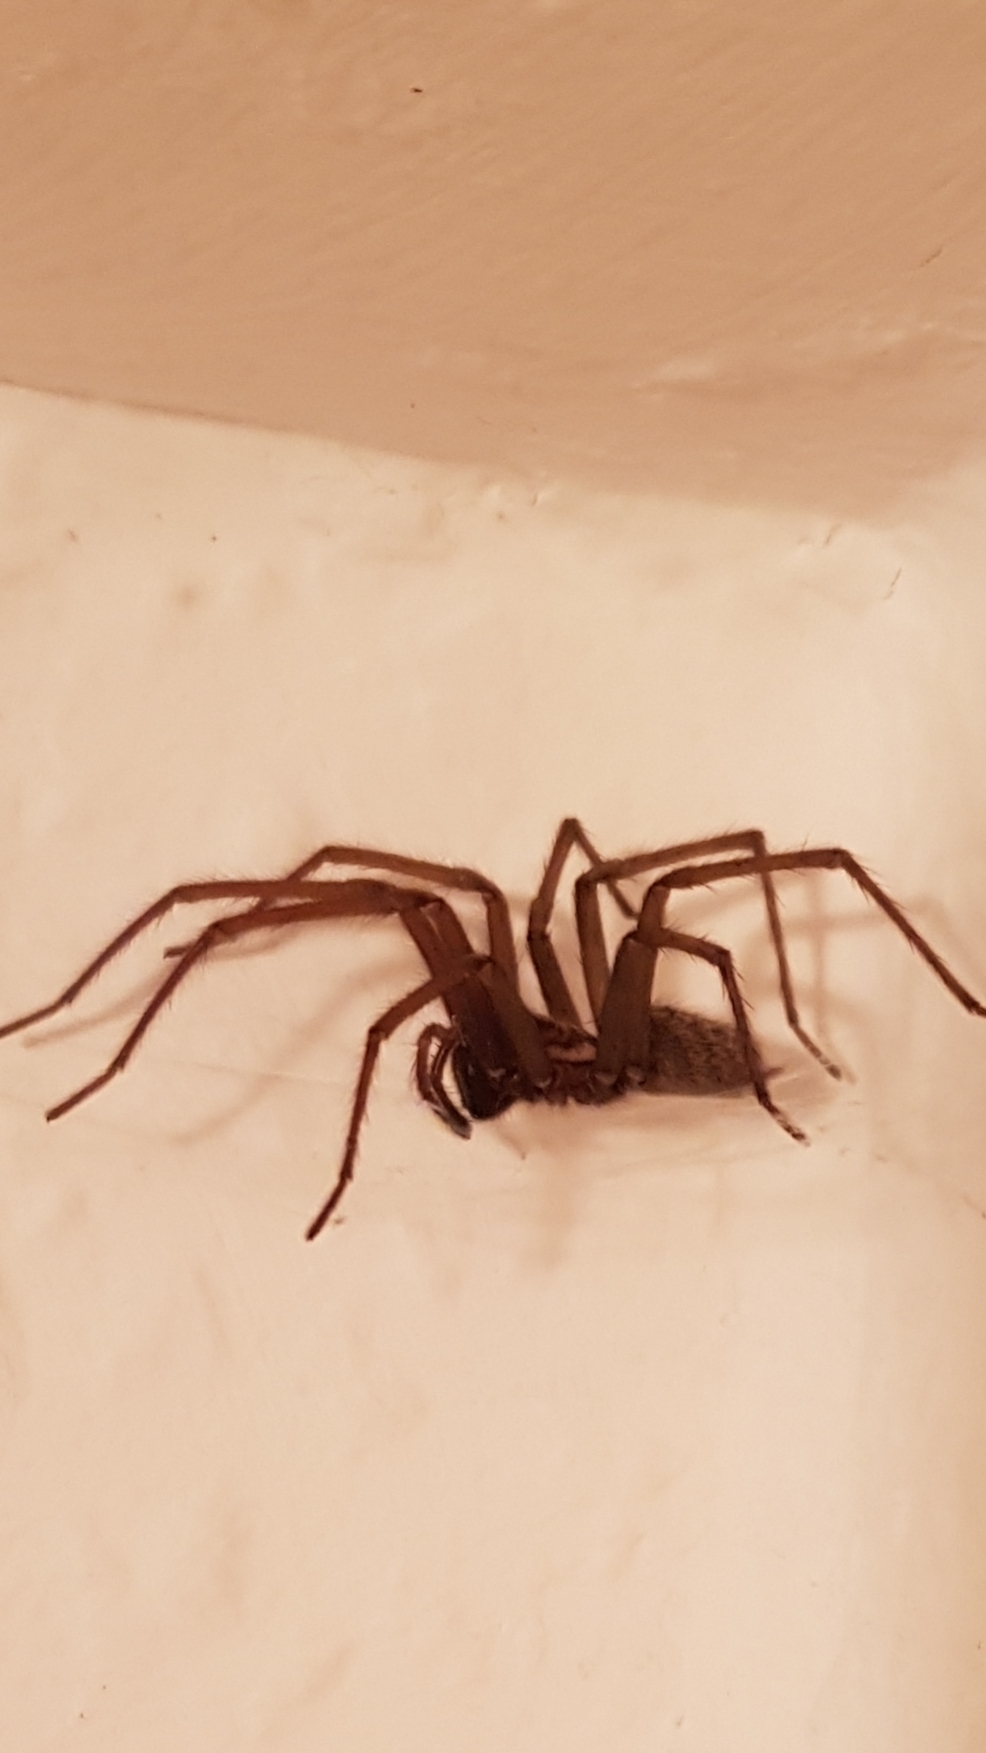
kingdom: Animalia
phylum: Arthropoda
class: Arachnida
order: Araneae
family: Agelenidae
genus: Eratigena
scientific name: Eratigena atrica
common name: Giant house spider
